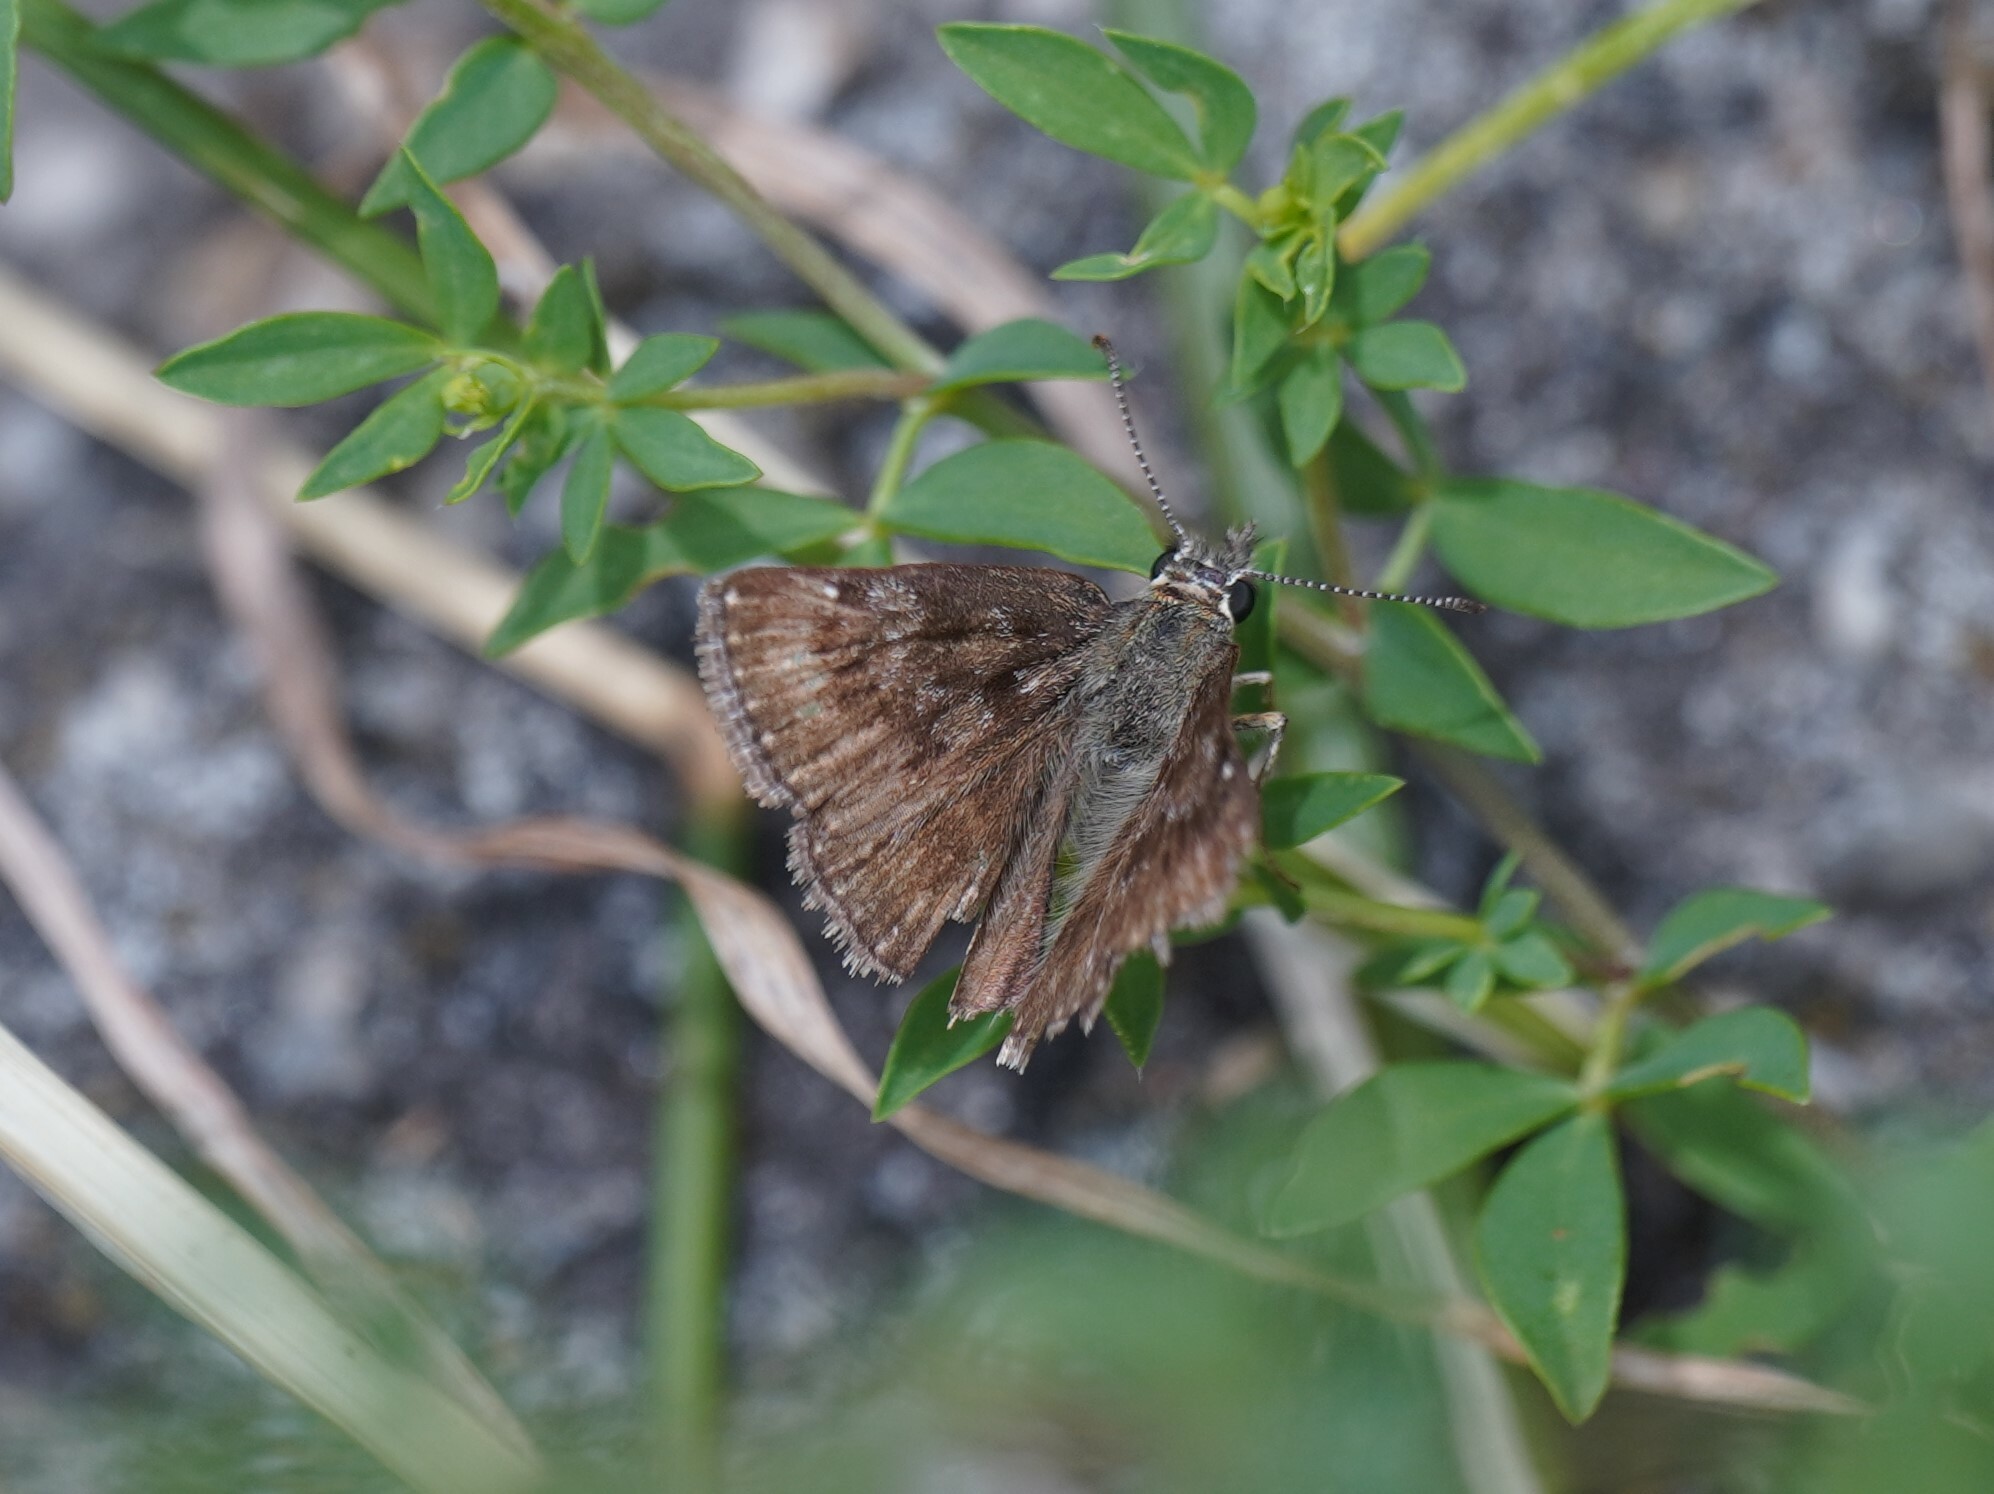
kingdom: Animalia
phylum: Arthropoda
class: Insecta
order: Lepidoptera
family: Hesperiidae
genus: Erynnis
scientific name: Erynnis tages
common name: Dingy skipper
